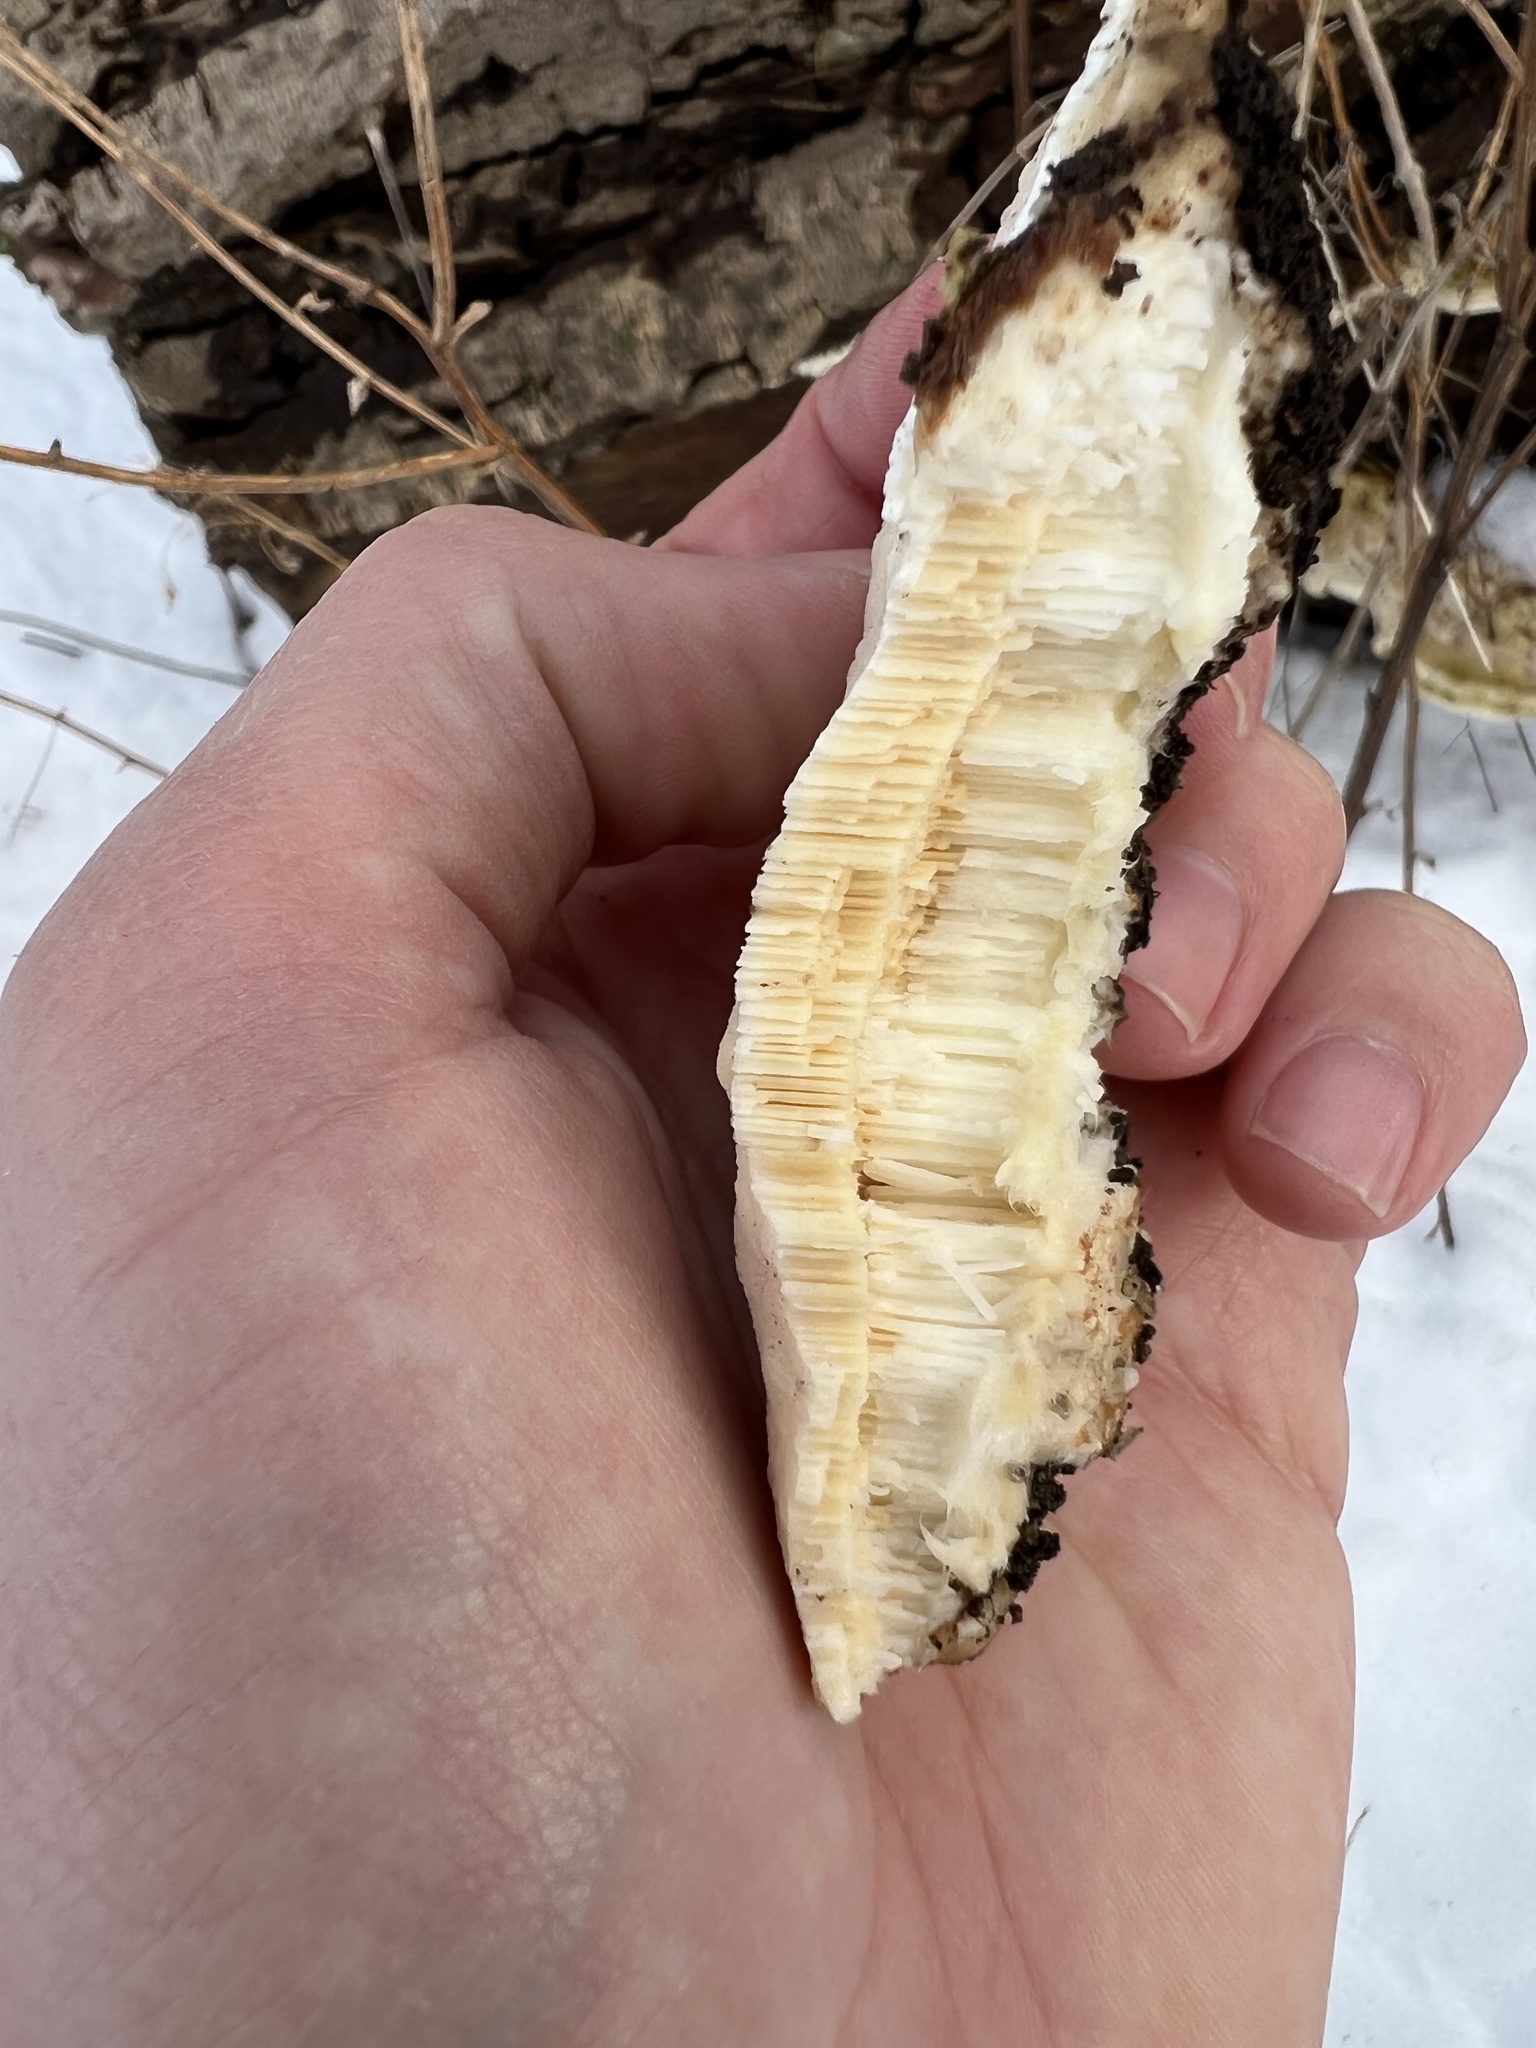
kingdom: Fungi
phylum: Basidiomycota
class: Agaricomycetes
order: Polyporales
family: Polyporaceae
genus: Trametes
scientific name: Trametes gibbosa
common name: Lumpy bracket
